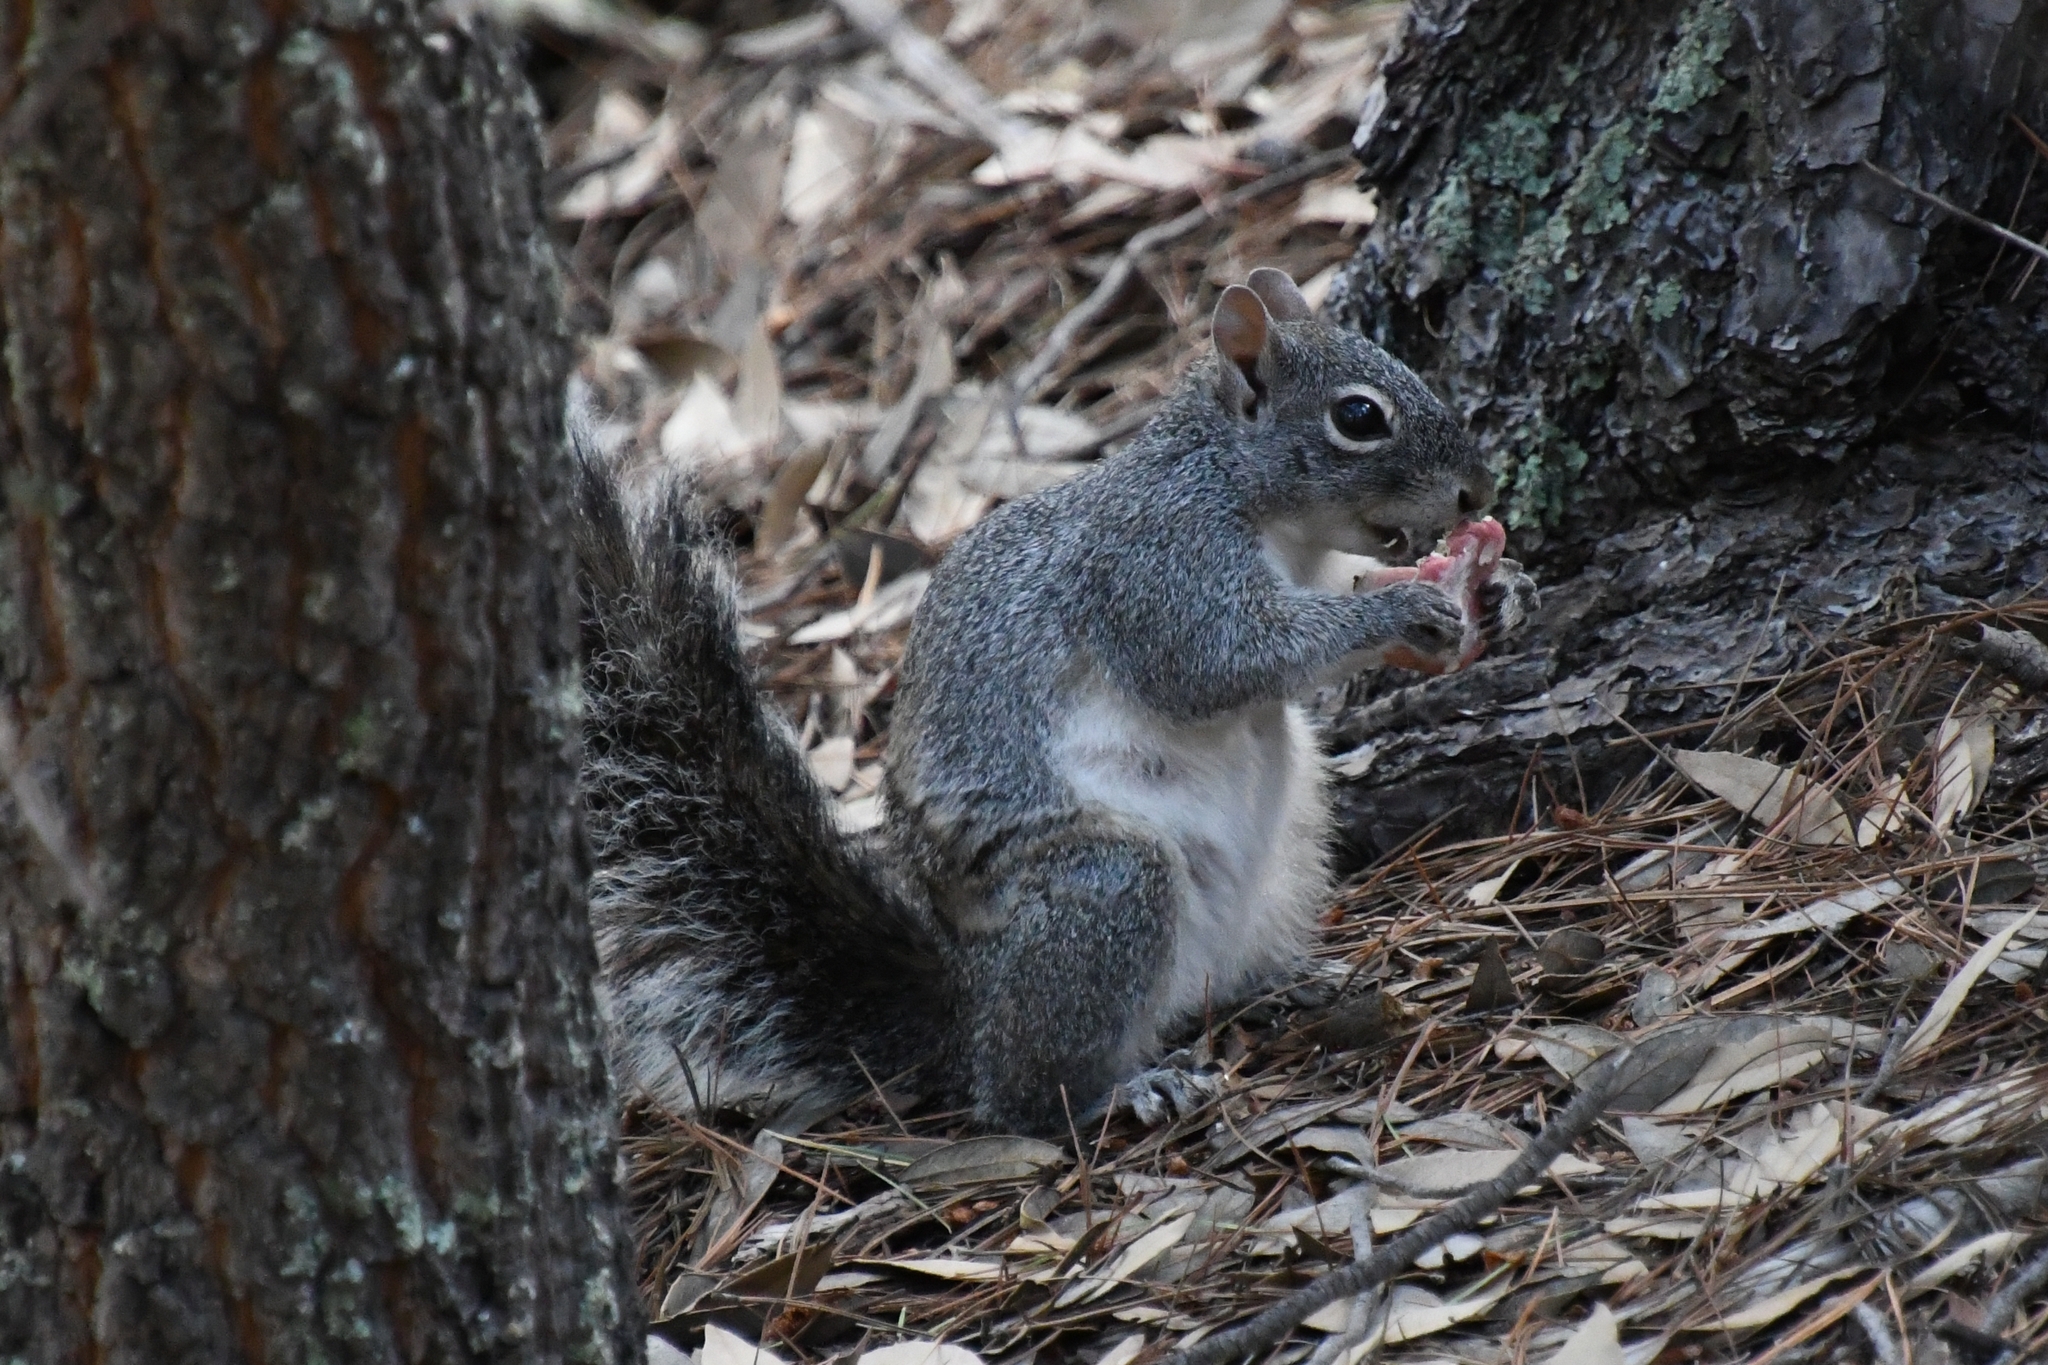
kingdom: Animalia
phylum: Chordata
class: Mammalia
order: Rodentia
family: Sciuridae
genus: Sciurus
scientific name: Sciurus arizonensis
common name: Arizona gray squirrel
